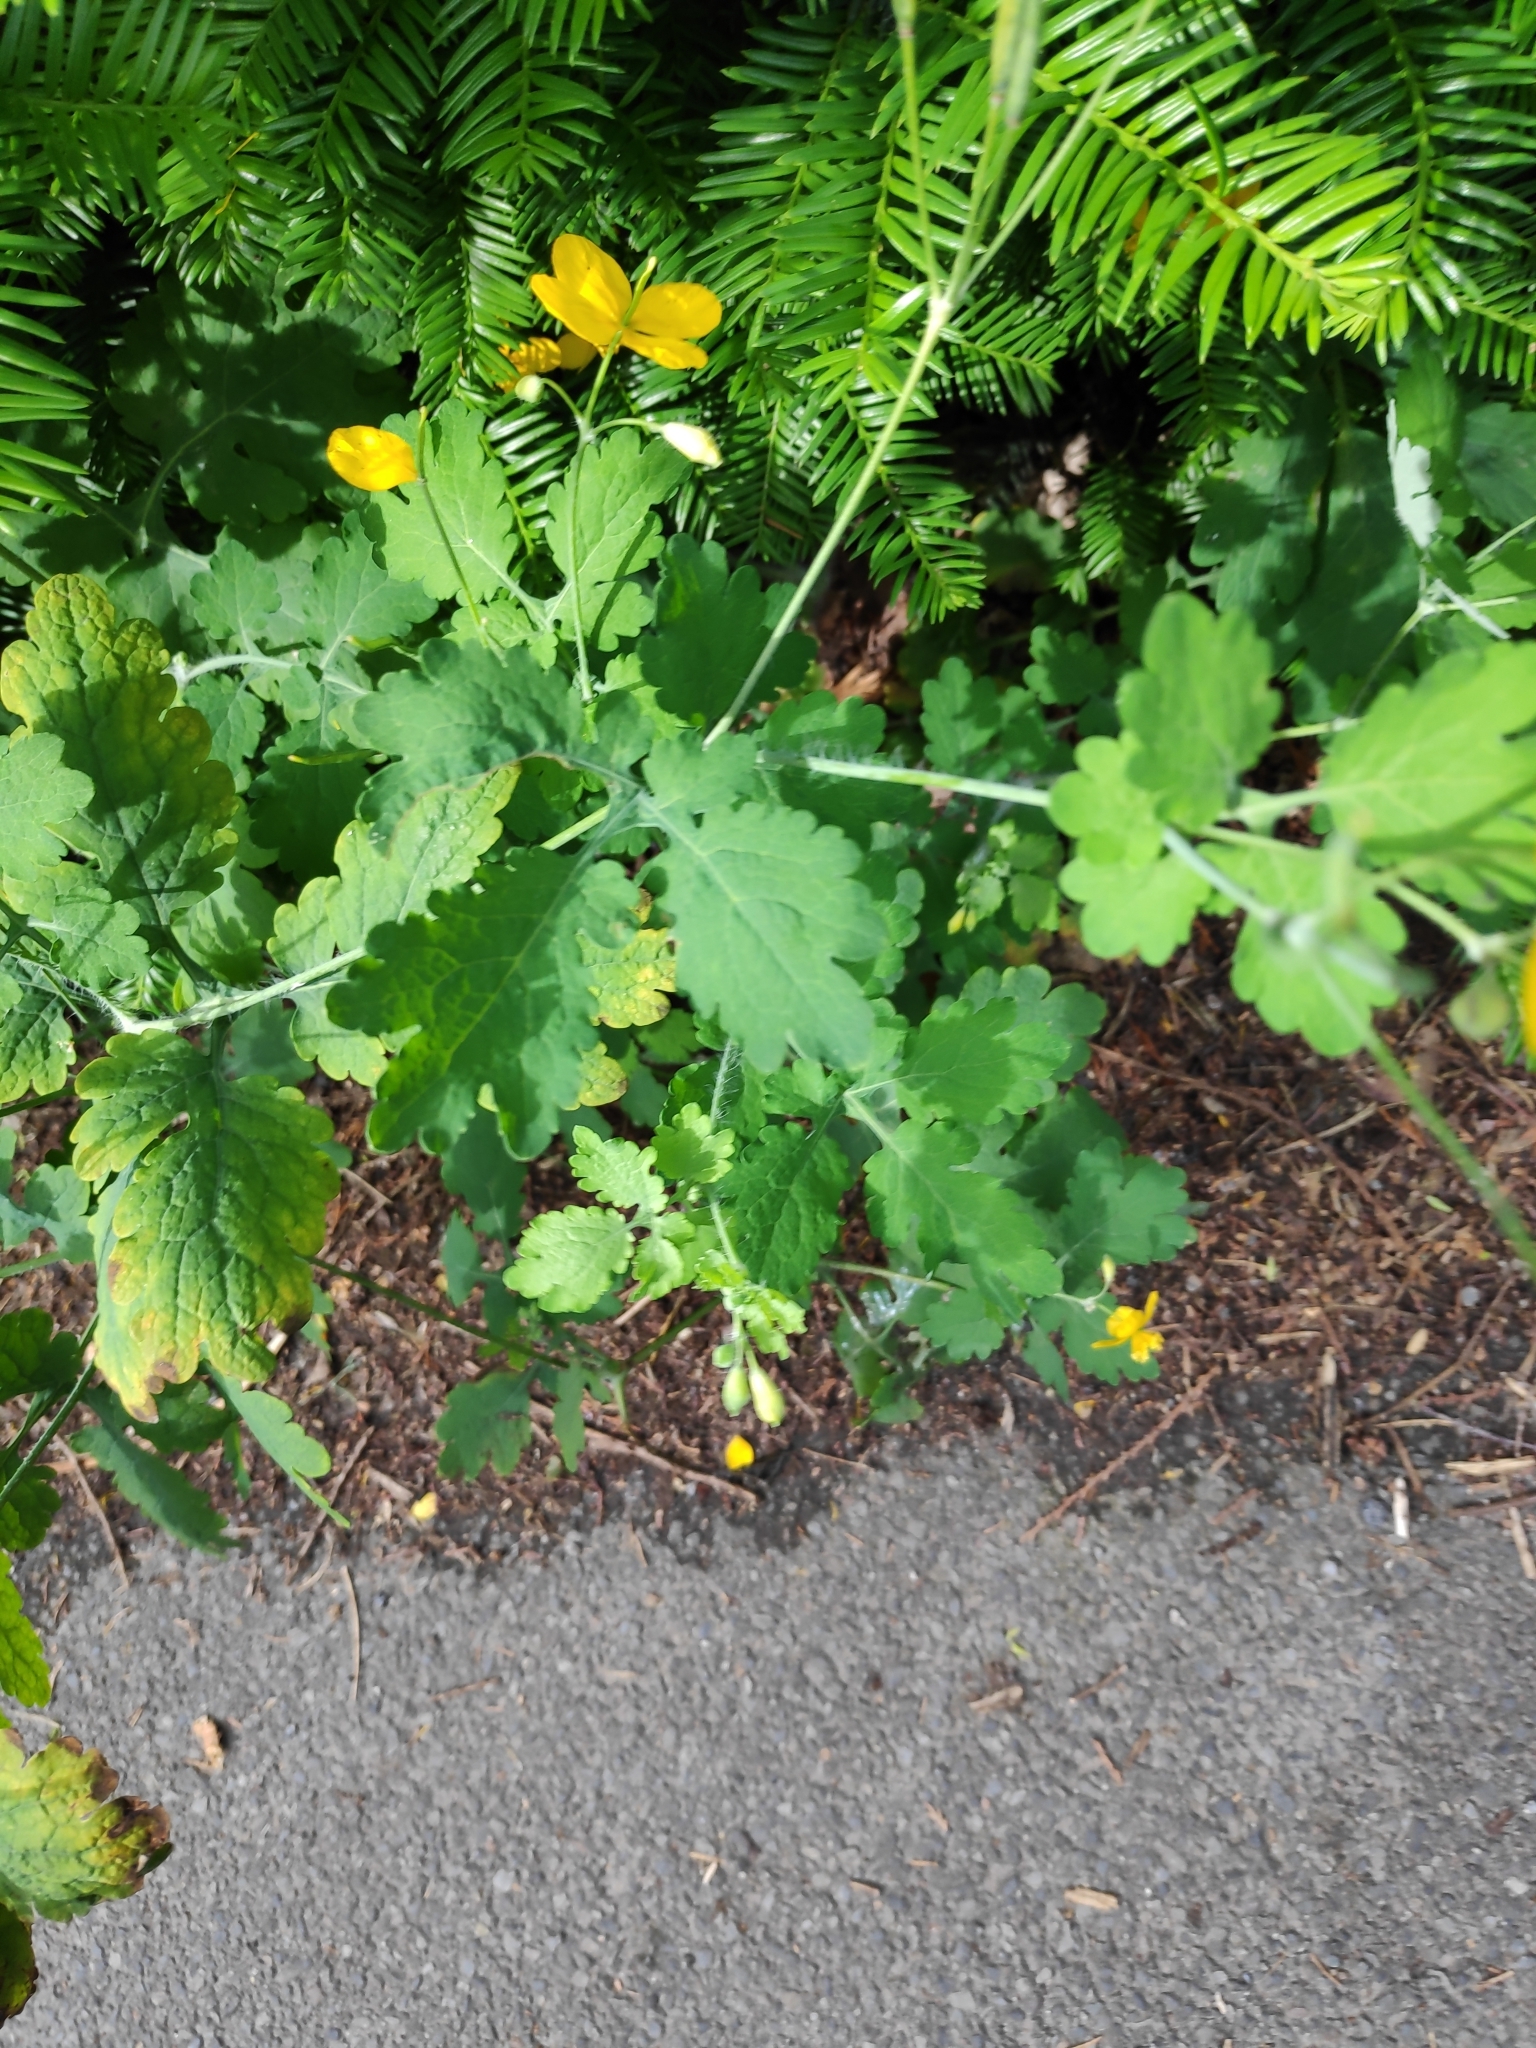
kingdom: Plantae
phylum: Tracheophyta
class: Magnoliopsida
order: Ranunculales
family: Papaveraceae
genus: Chelidonium
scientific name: Chelidonium majus
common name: Greater celandine
